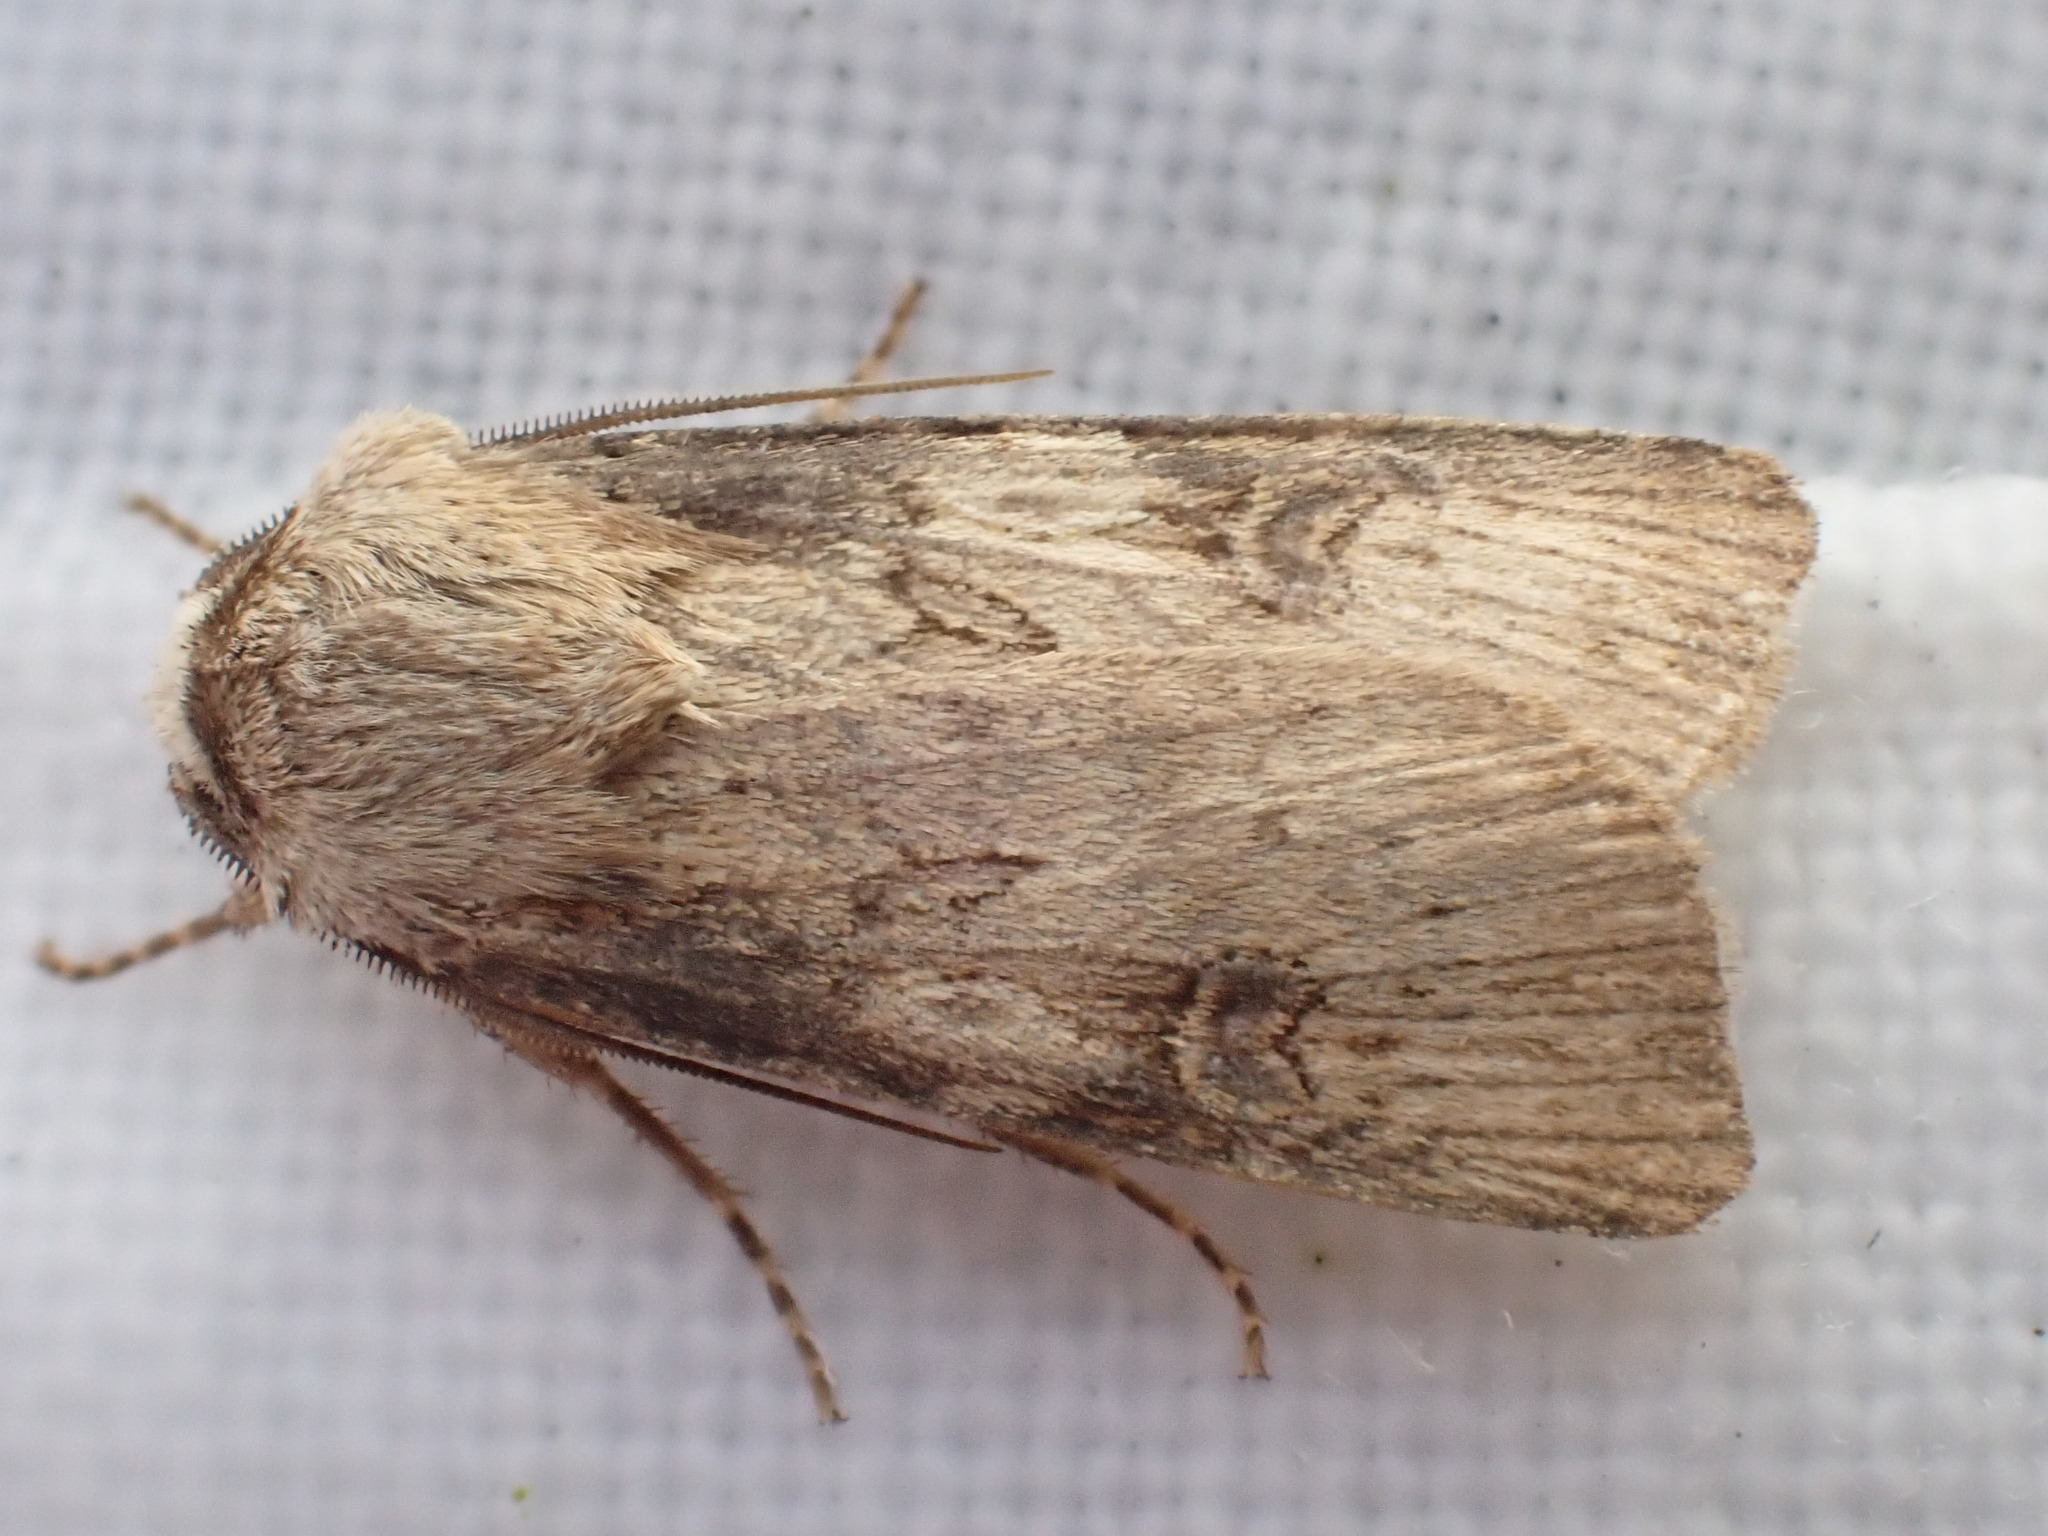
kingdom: Animalia
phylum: Arthropoda
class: Insecta
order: Lepidoptera
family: Noctuidae
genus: Agrotis
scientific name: Agrotis puta
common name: Shuttle-shaped dart
